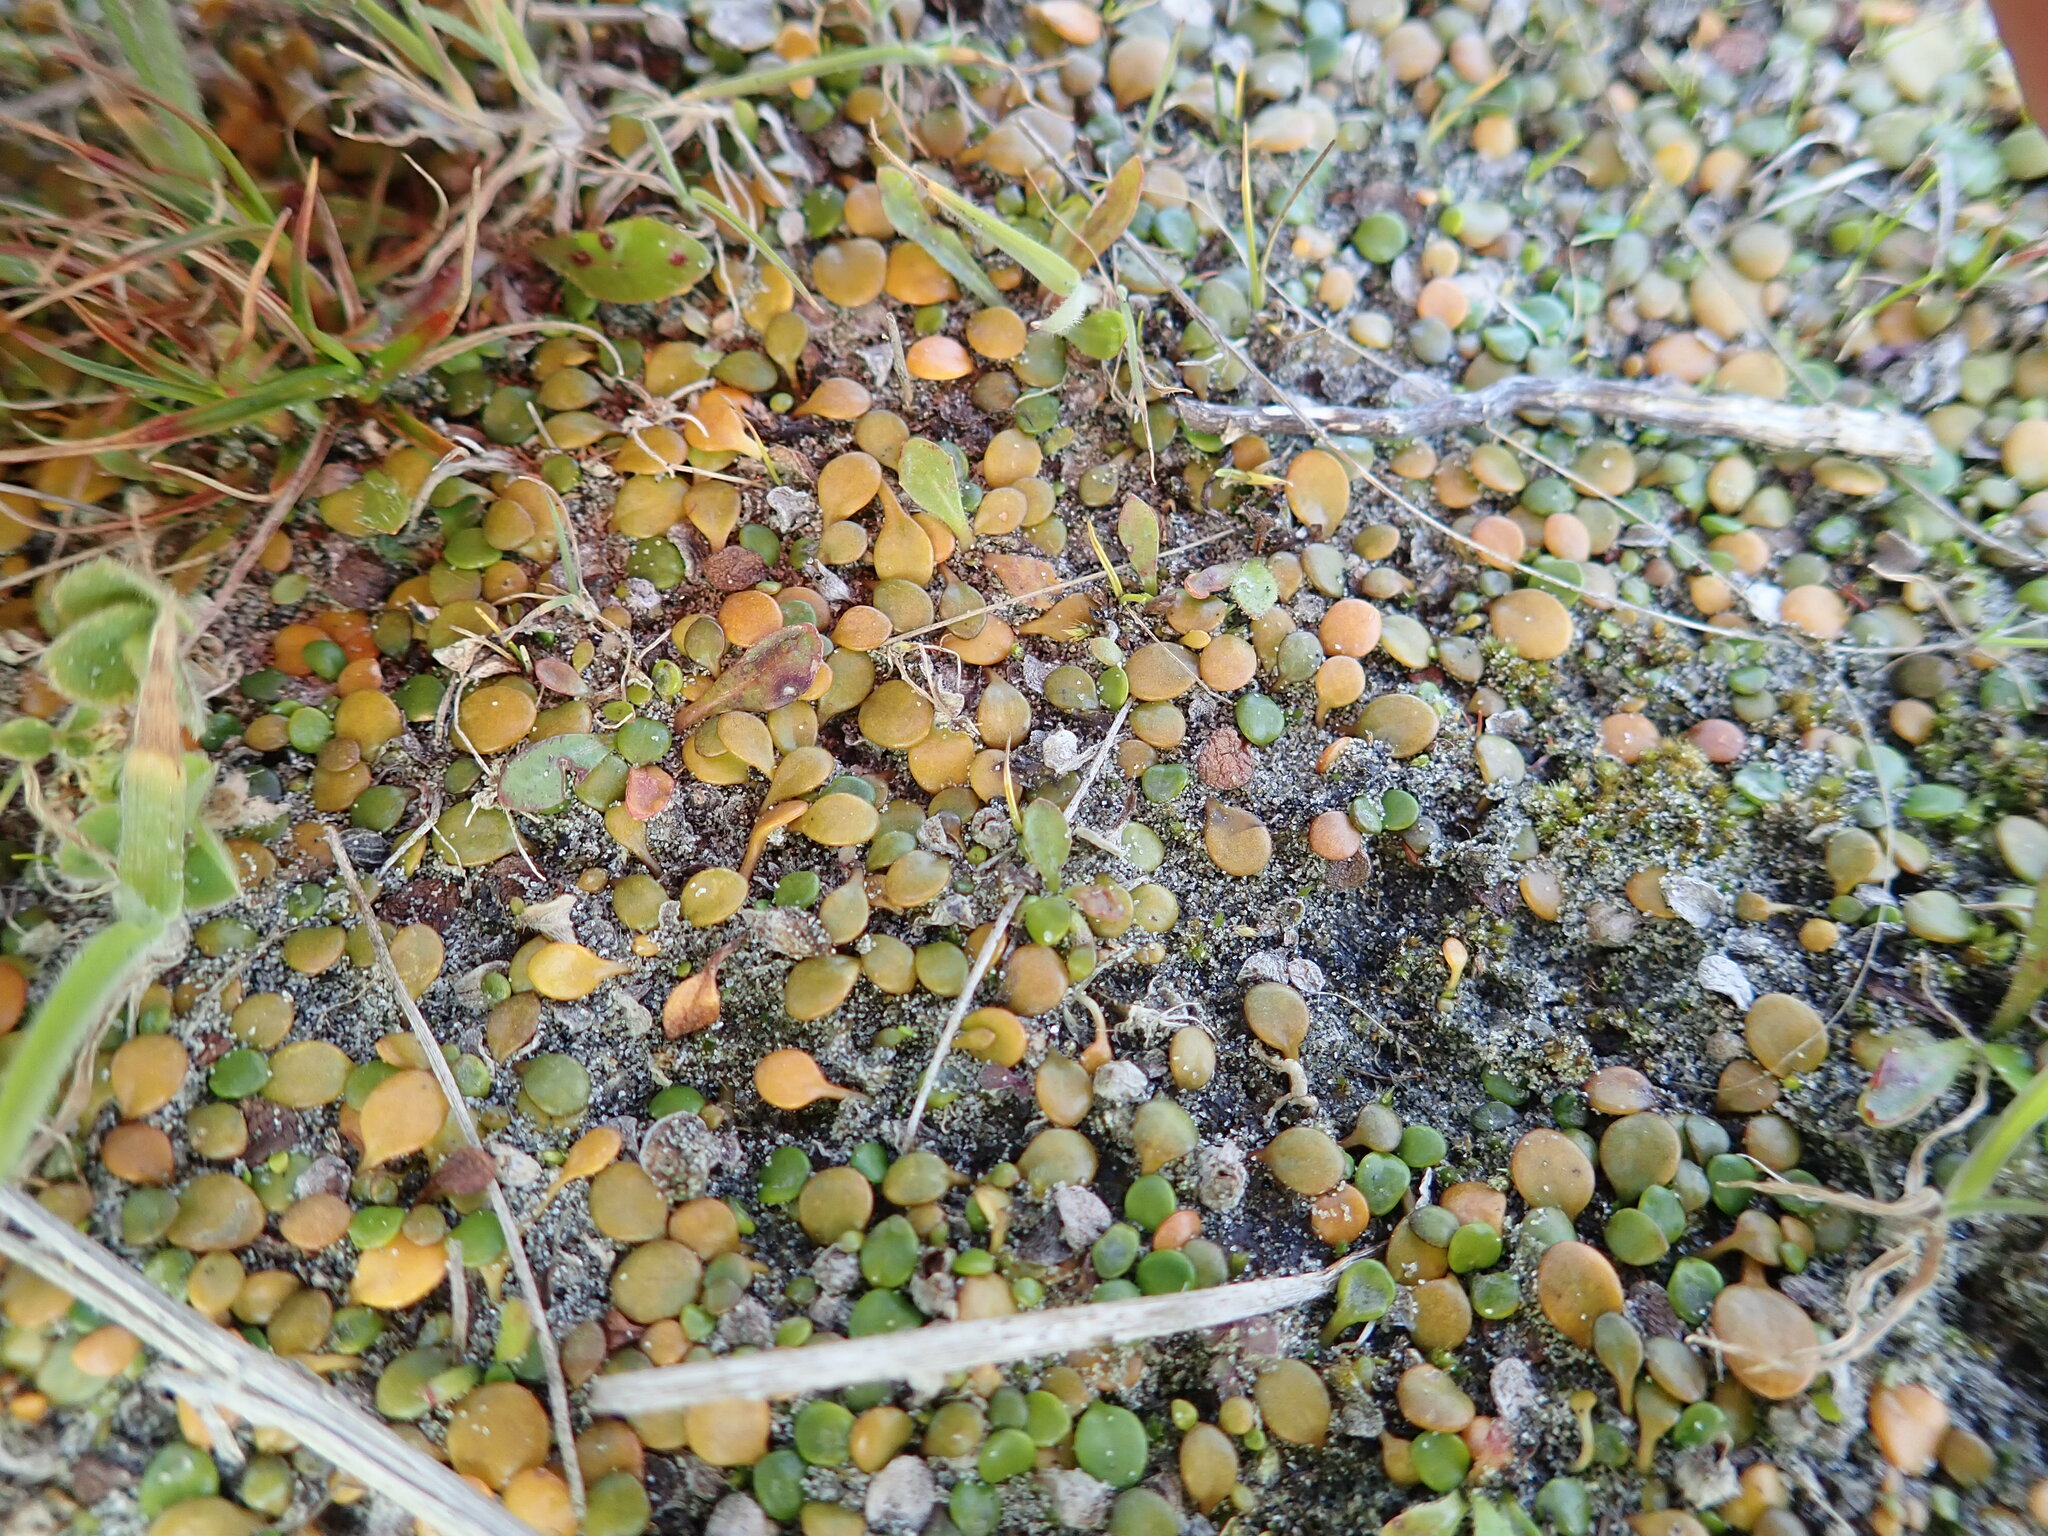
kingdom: Plantae
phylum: Tracheophyta
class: Magnoliopsida
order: Asterales
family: Goodeniaceae
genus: Goodenia
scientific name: Goodenia heenanii
